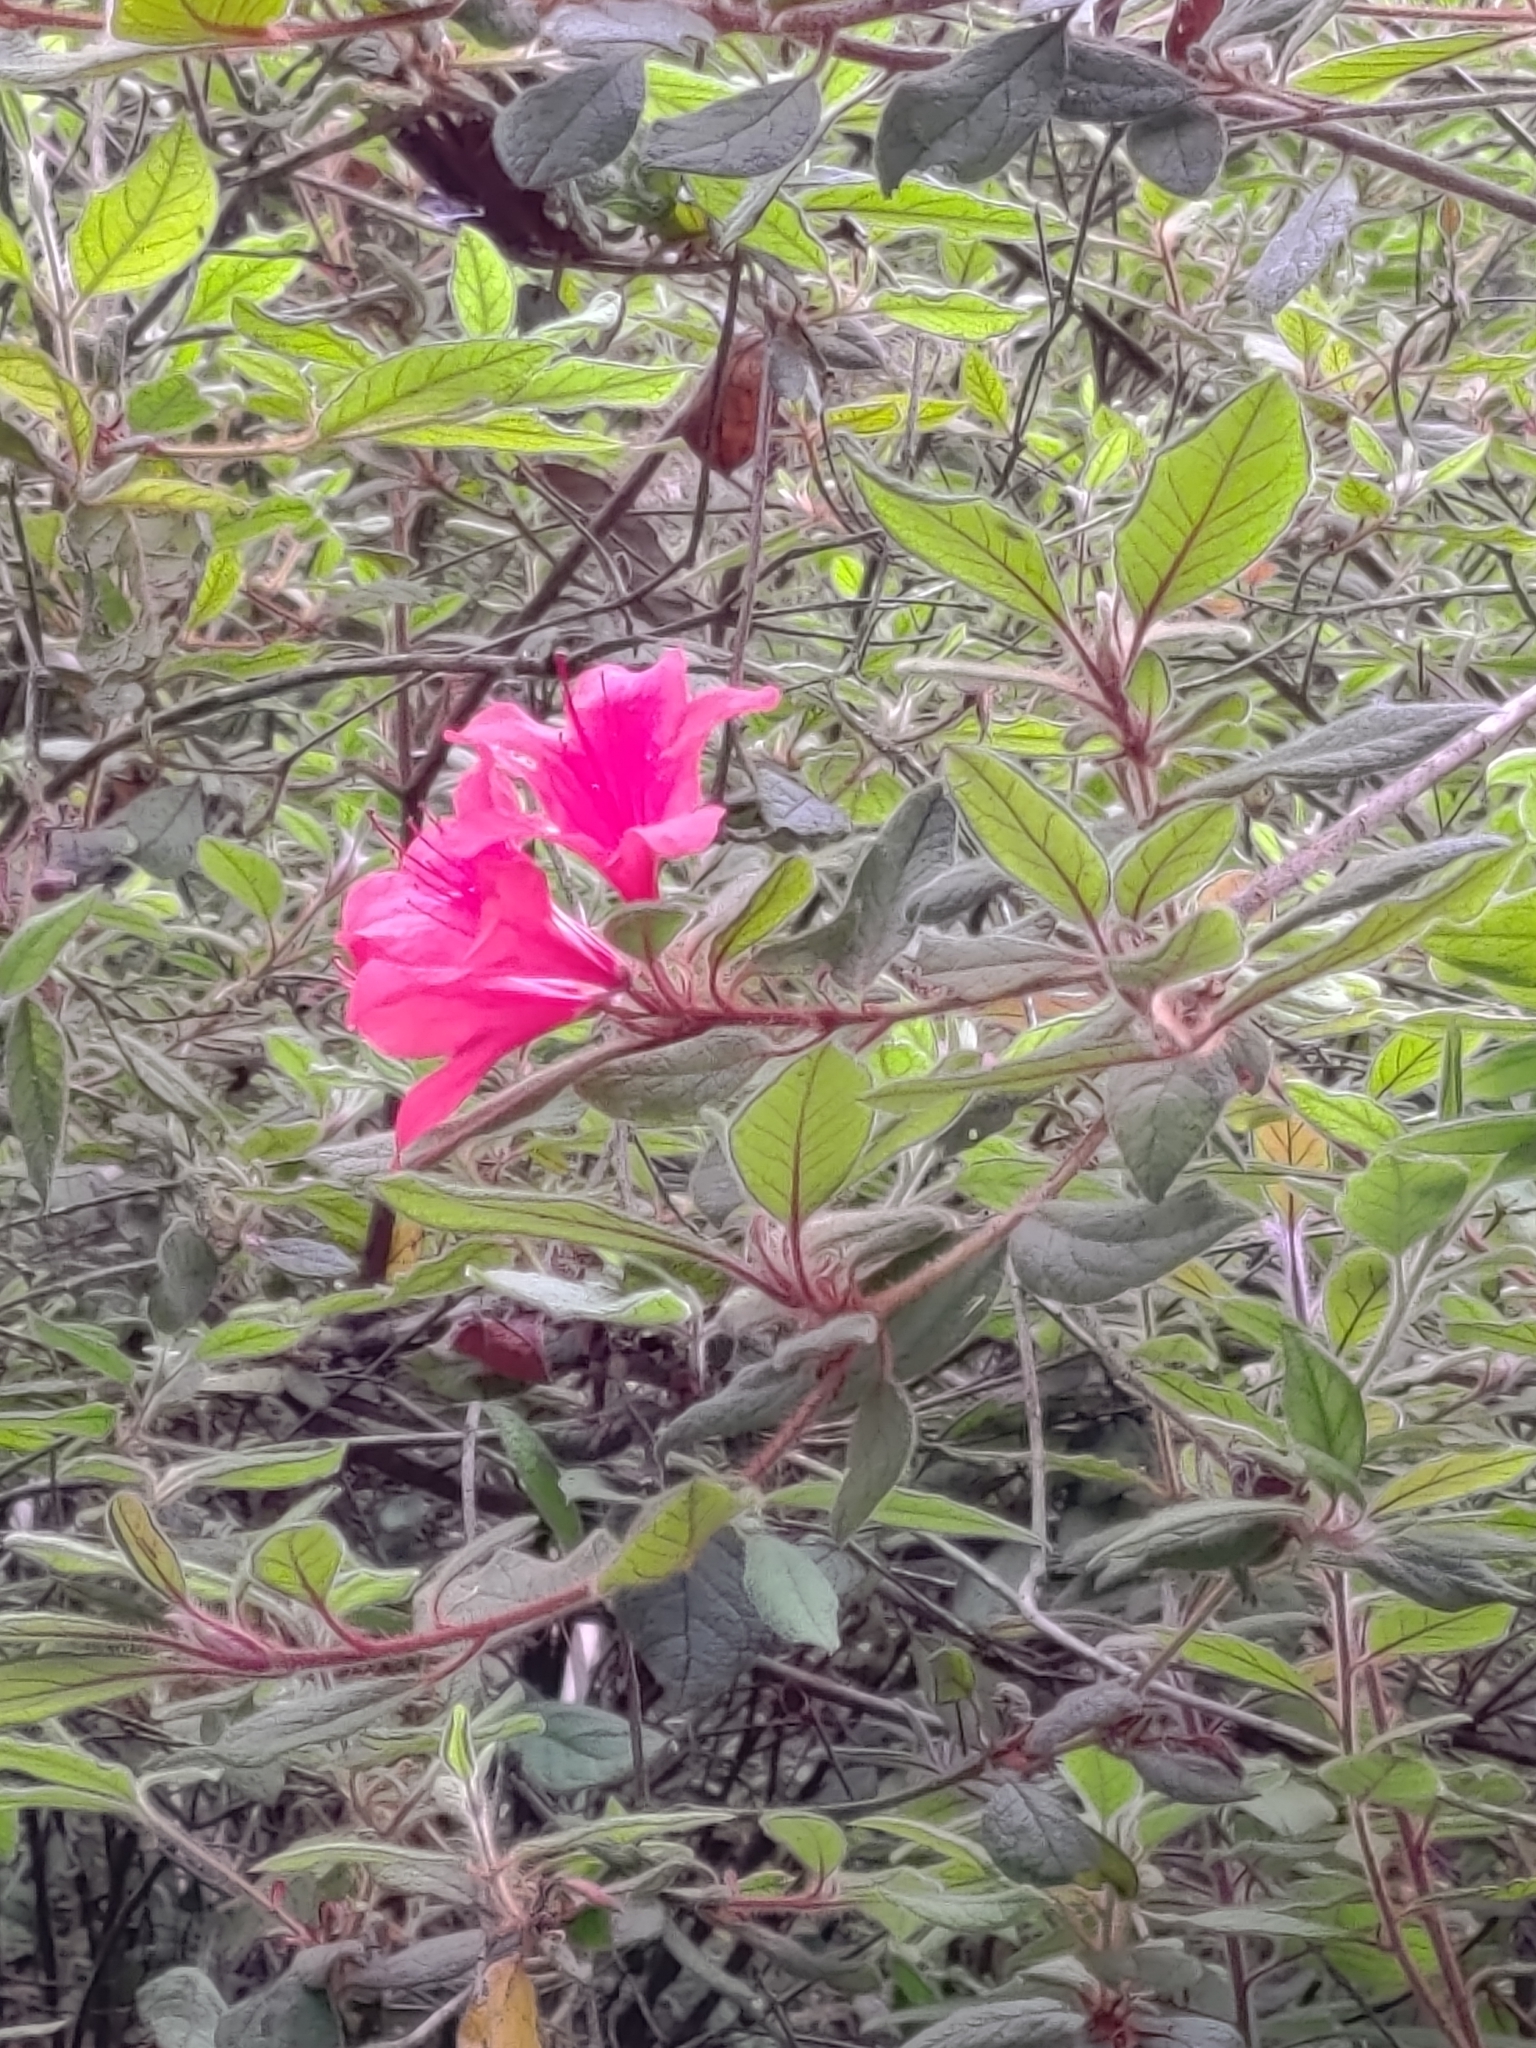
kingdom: Plantae
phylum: Tracheophyta
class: Magnoliopsida
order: Ericales
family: Ericaceae
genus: Rhododendron
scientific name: Rhododendron oldhamii
